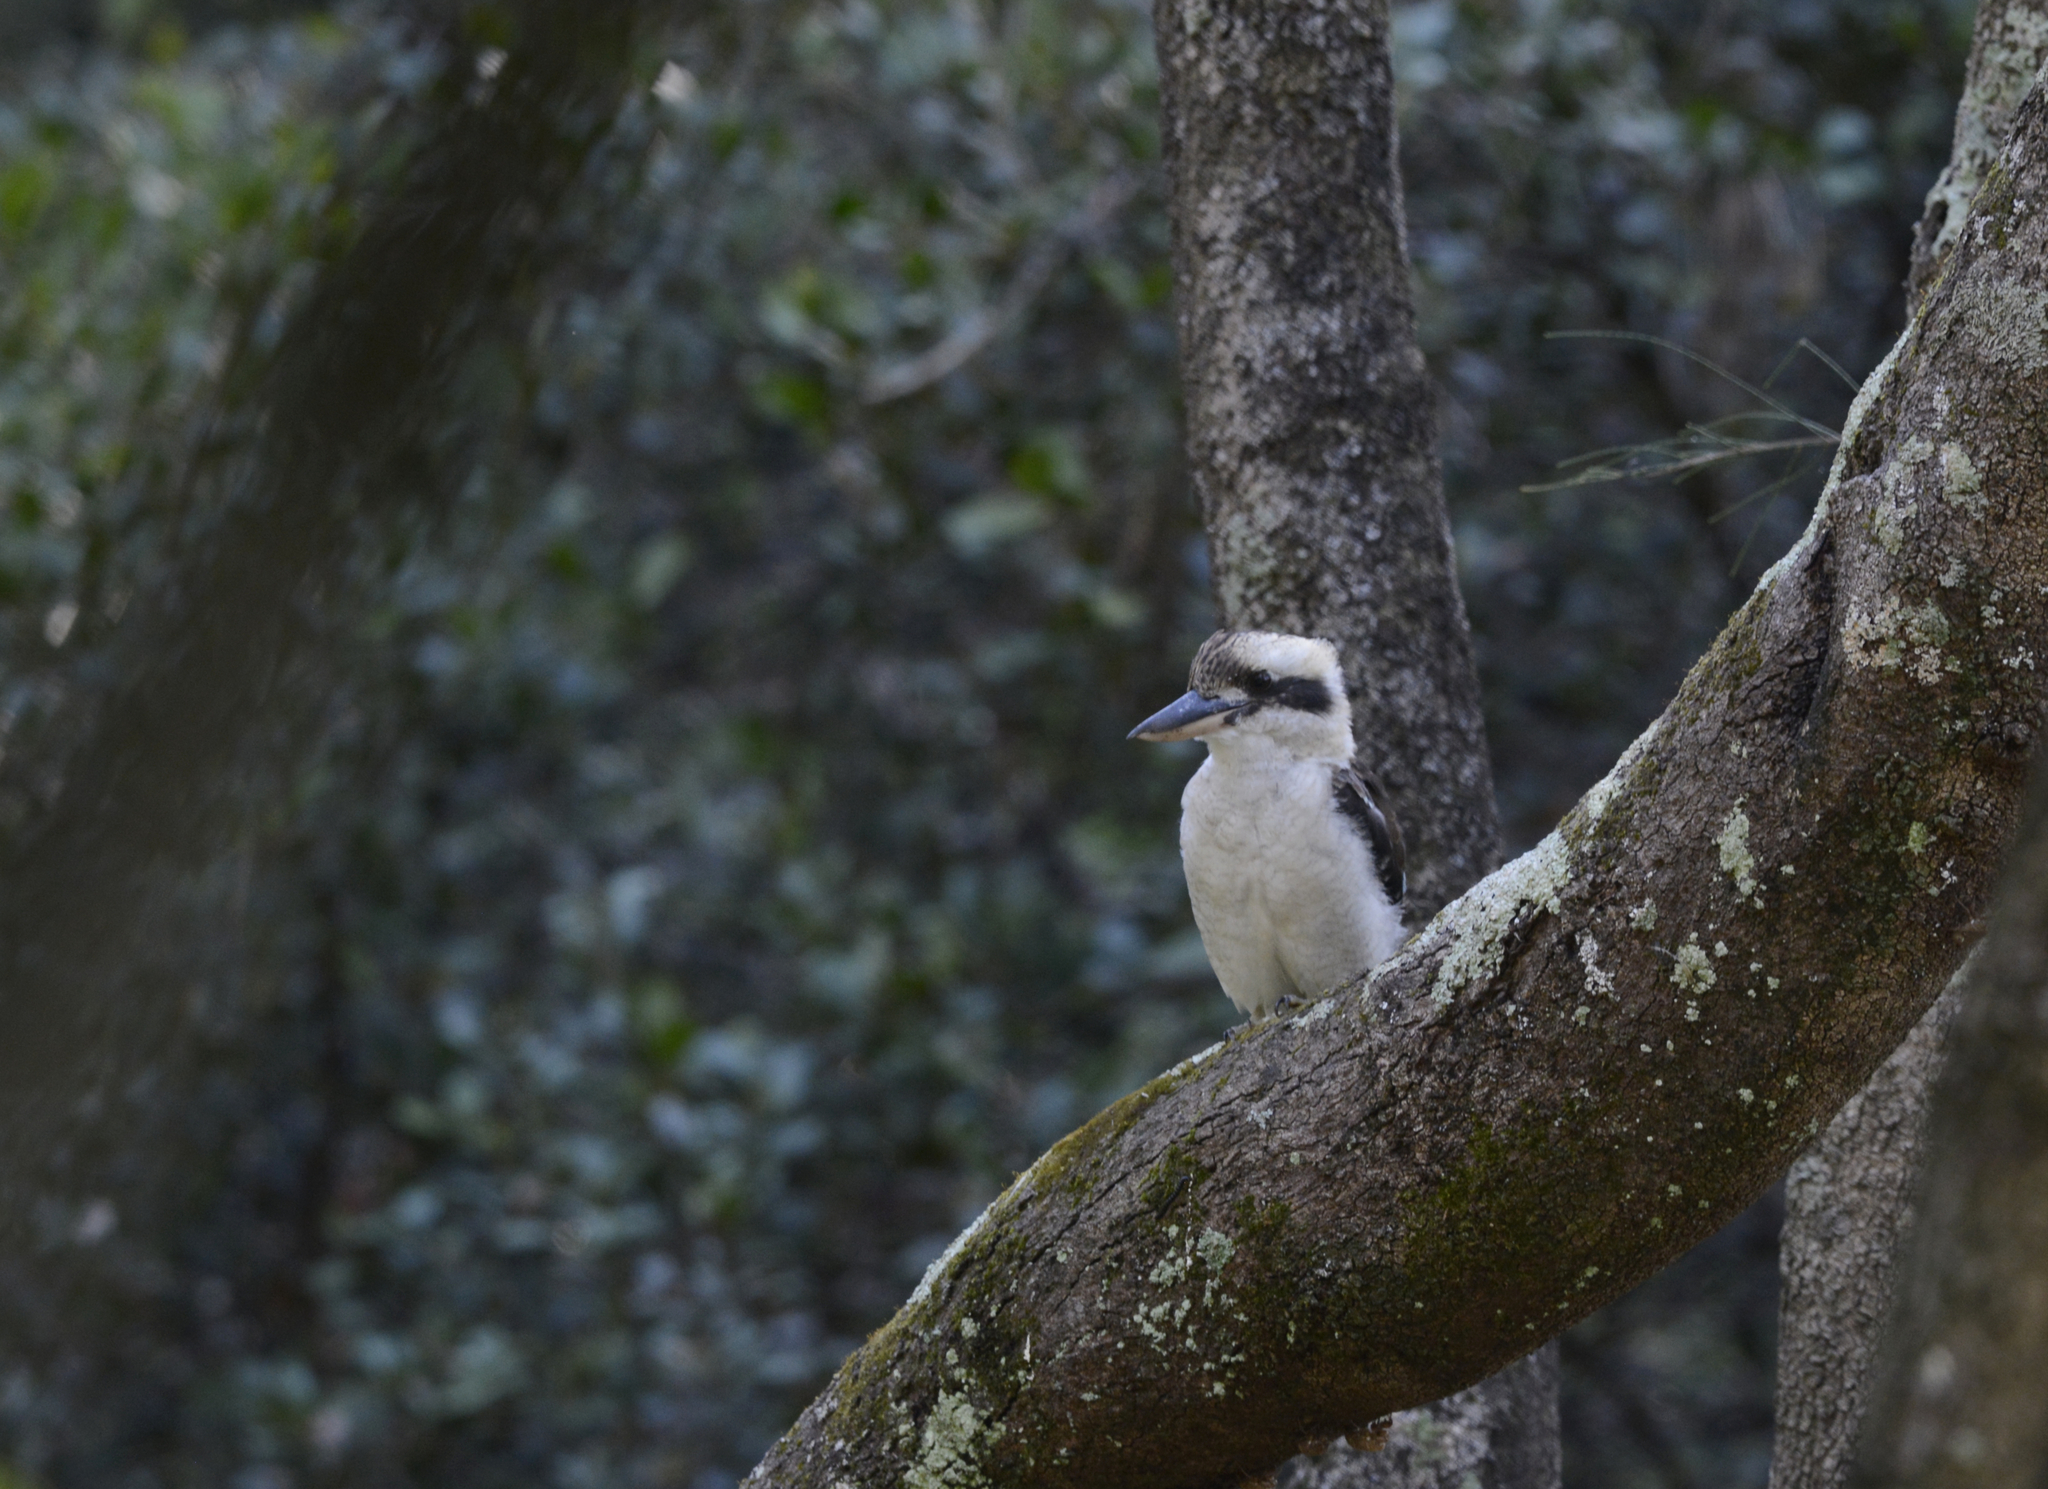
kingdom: Animalia
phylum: Chordata
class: Aves
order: Coraciiformes
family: Alcedinidae
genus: Dacelo
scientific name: Dacelo novaeguineae
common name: Laughing kookaburra
